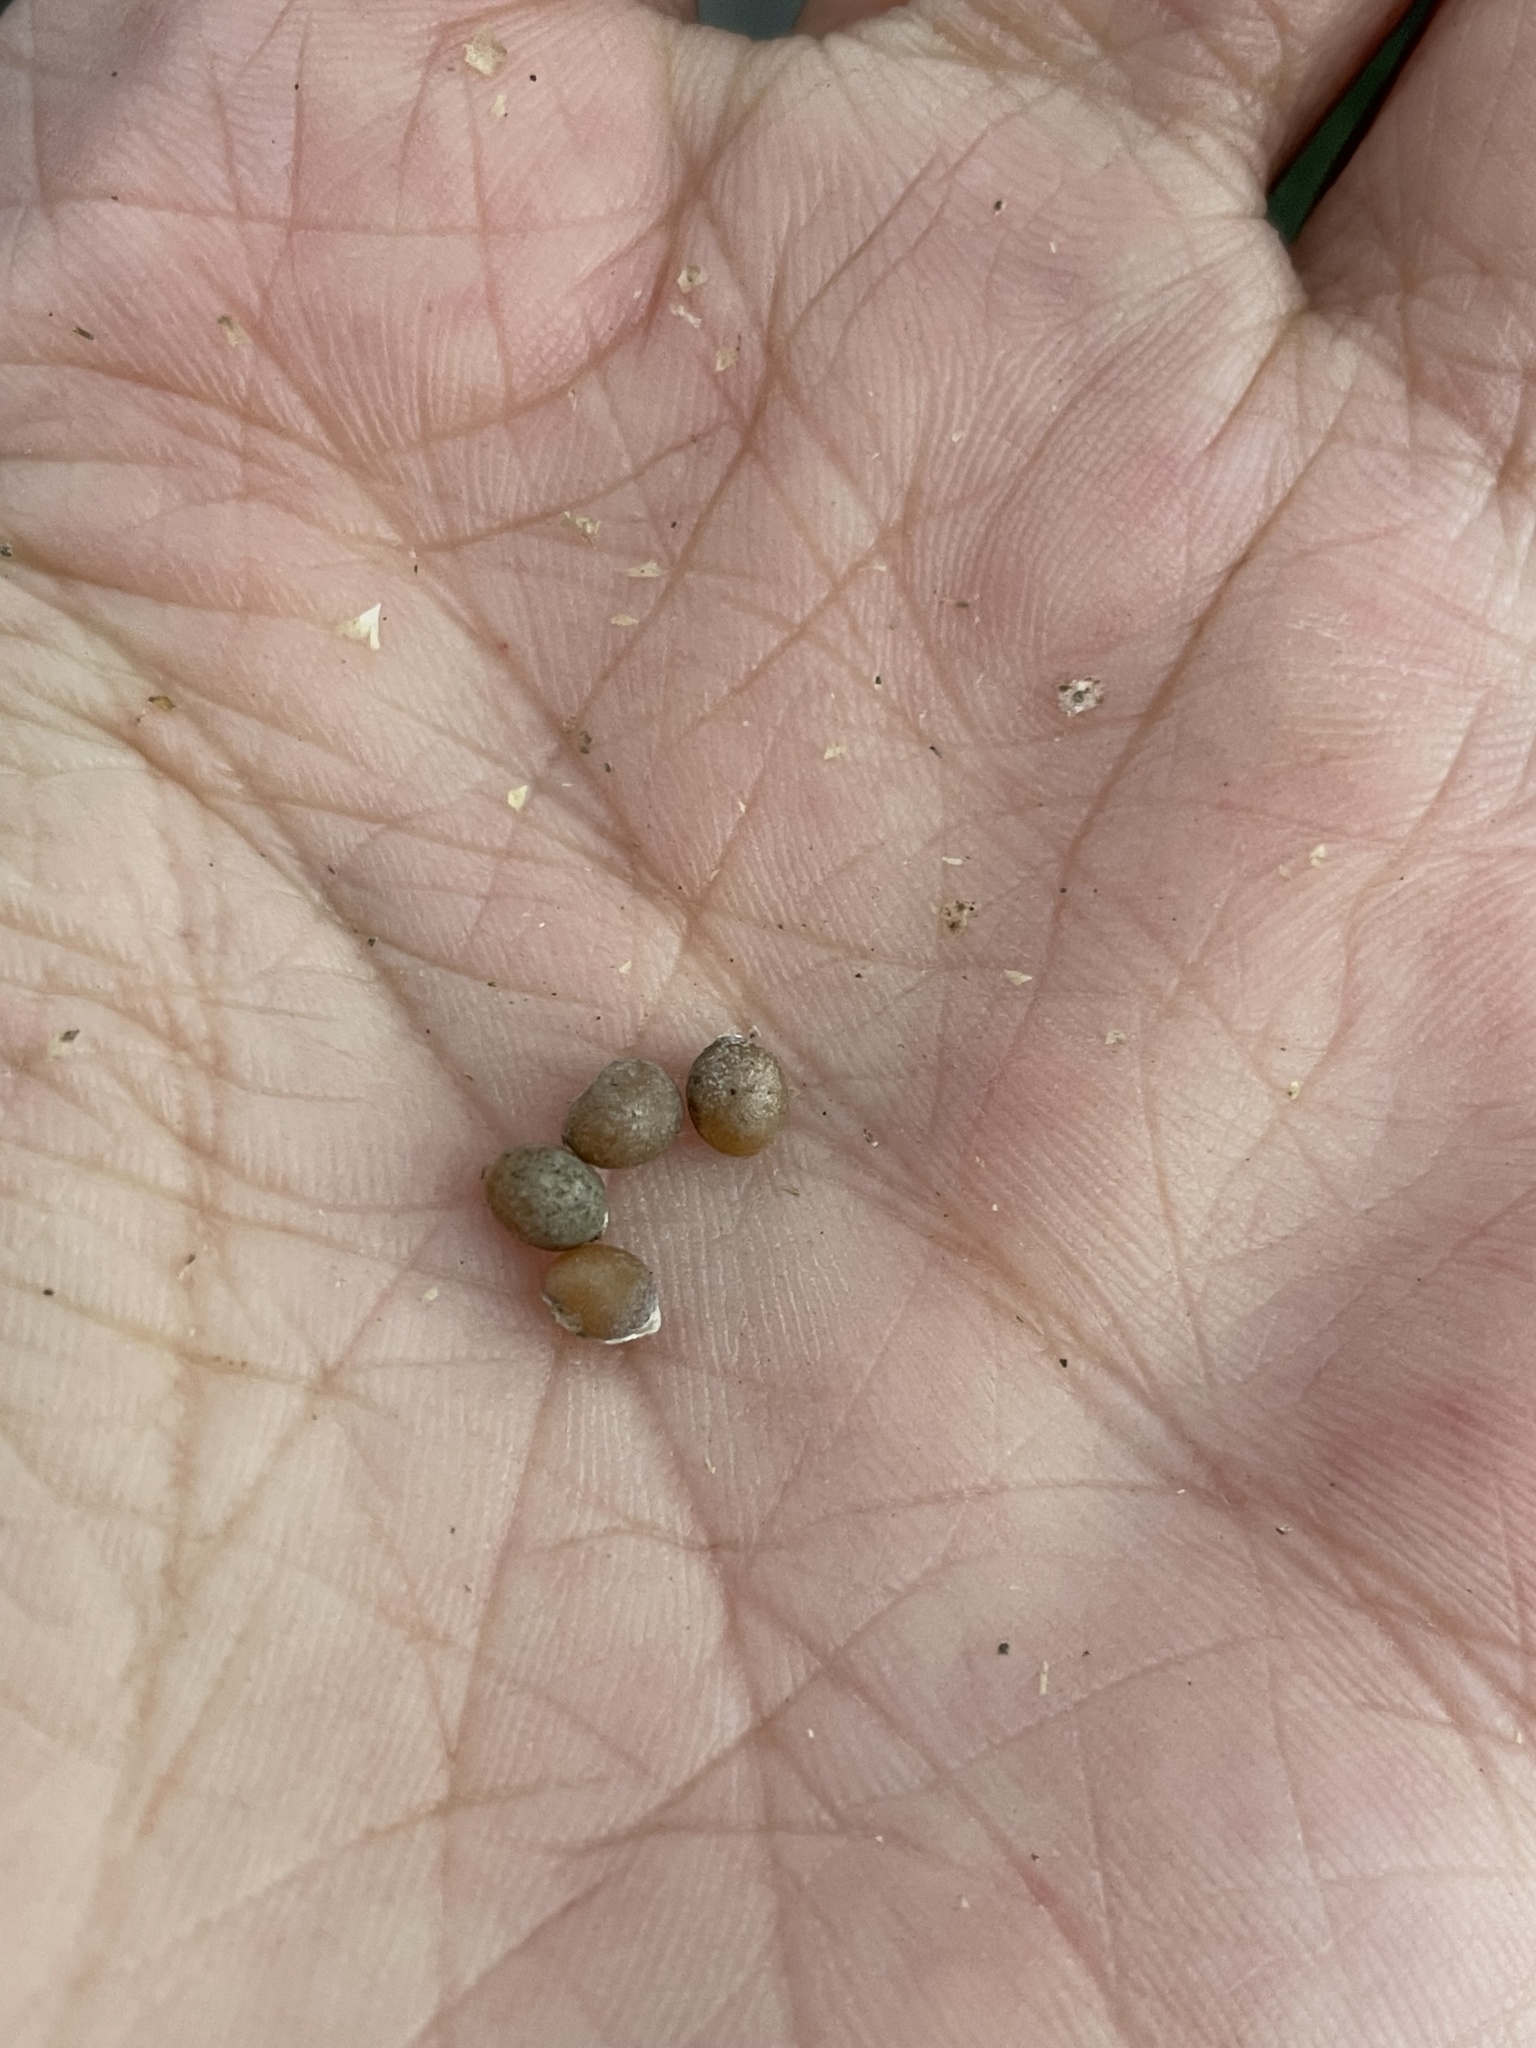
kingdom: Plantae
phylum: Tracheophyta
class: Liliopsida
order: Asparagales
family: Asparagaceae
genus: Nolina
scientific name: Nolina cismontana
